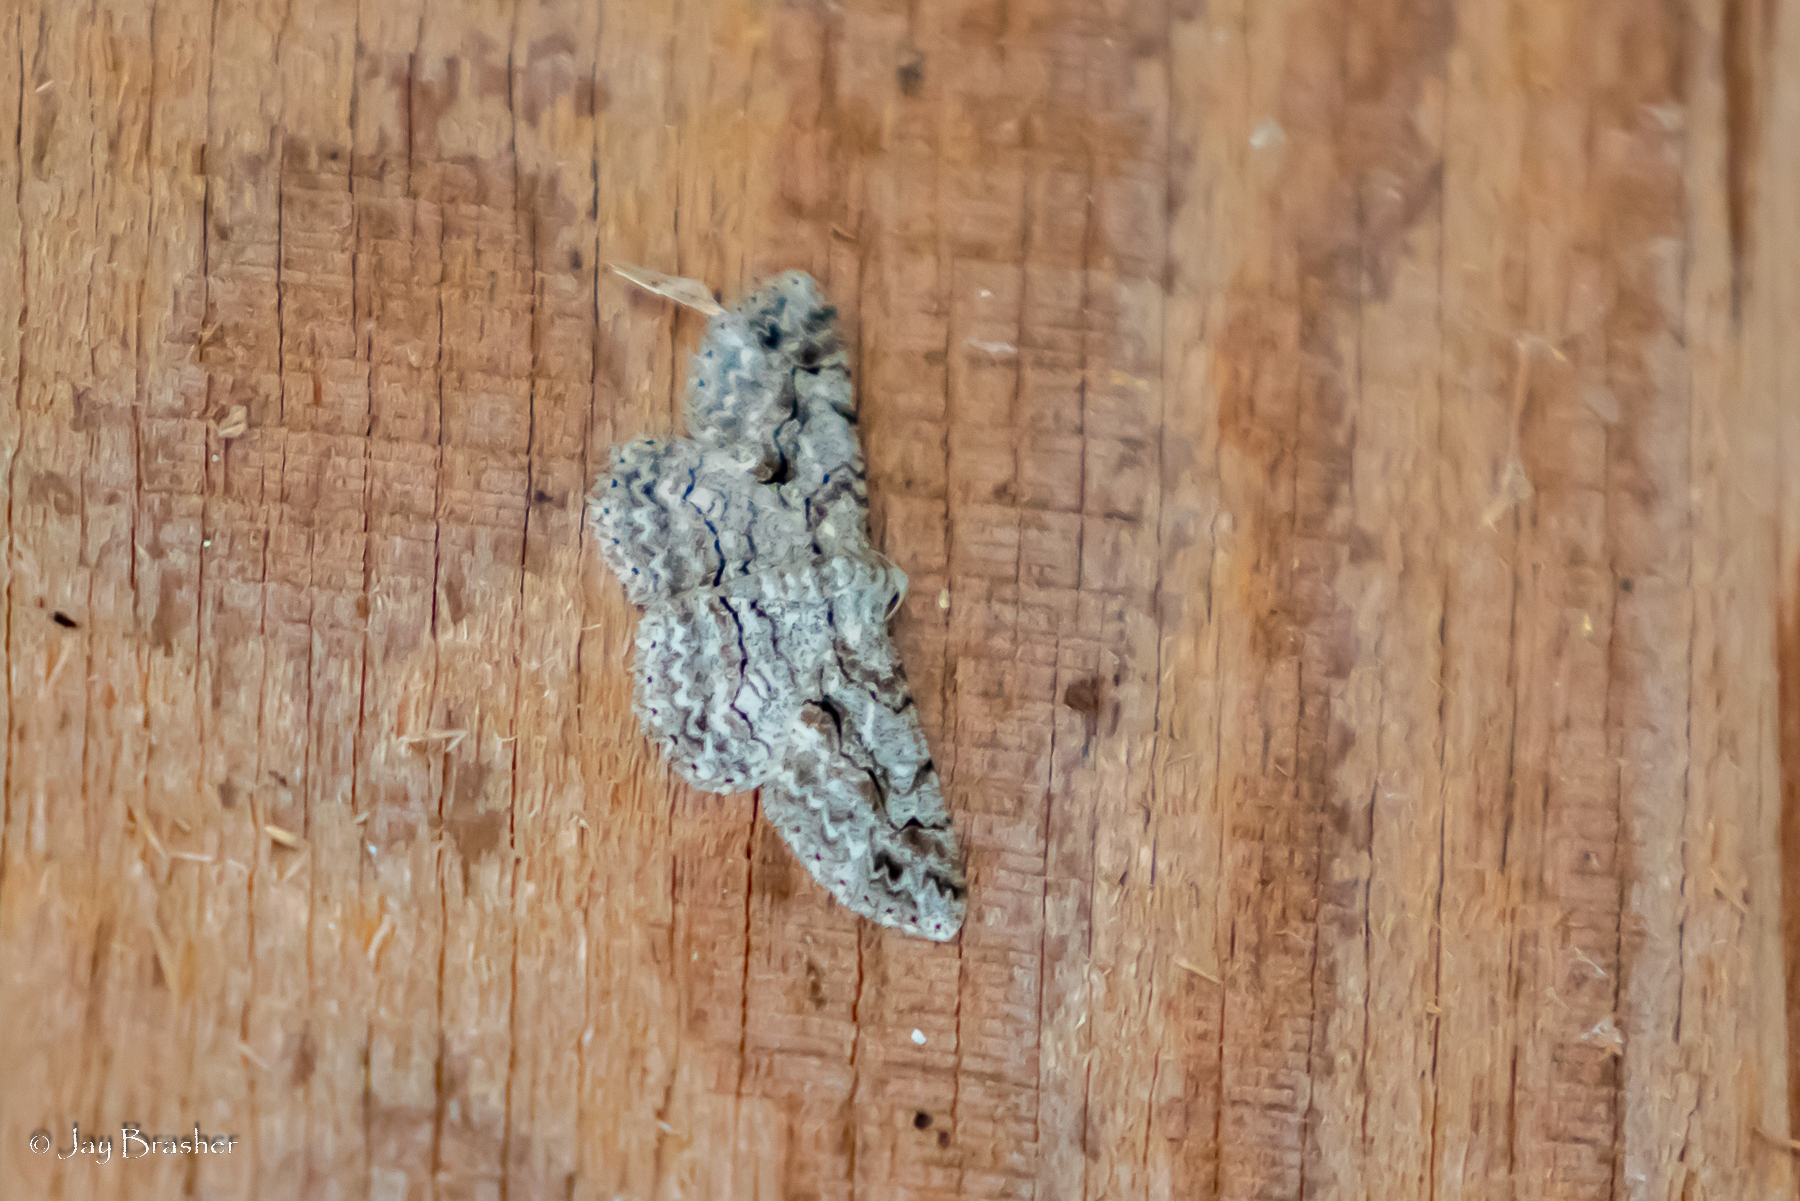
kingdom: Animalia
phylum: Arthropoda
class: Insecta
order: Lepidoptera
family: Geometridae
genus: Iridopsis
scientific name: Iridopsis defectaria
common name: Brown-shaded gray
